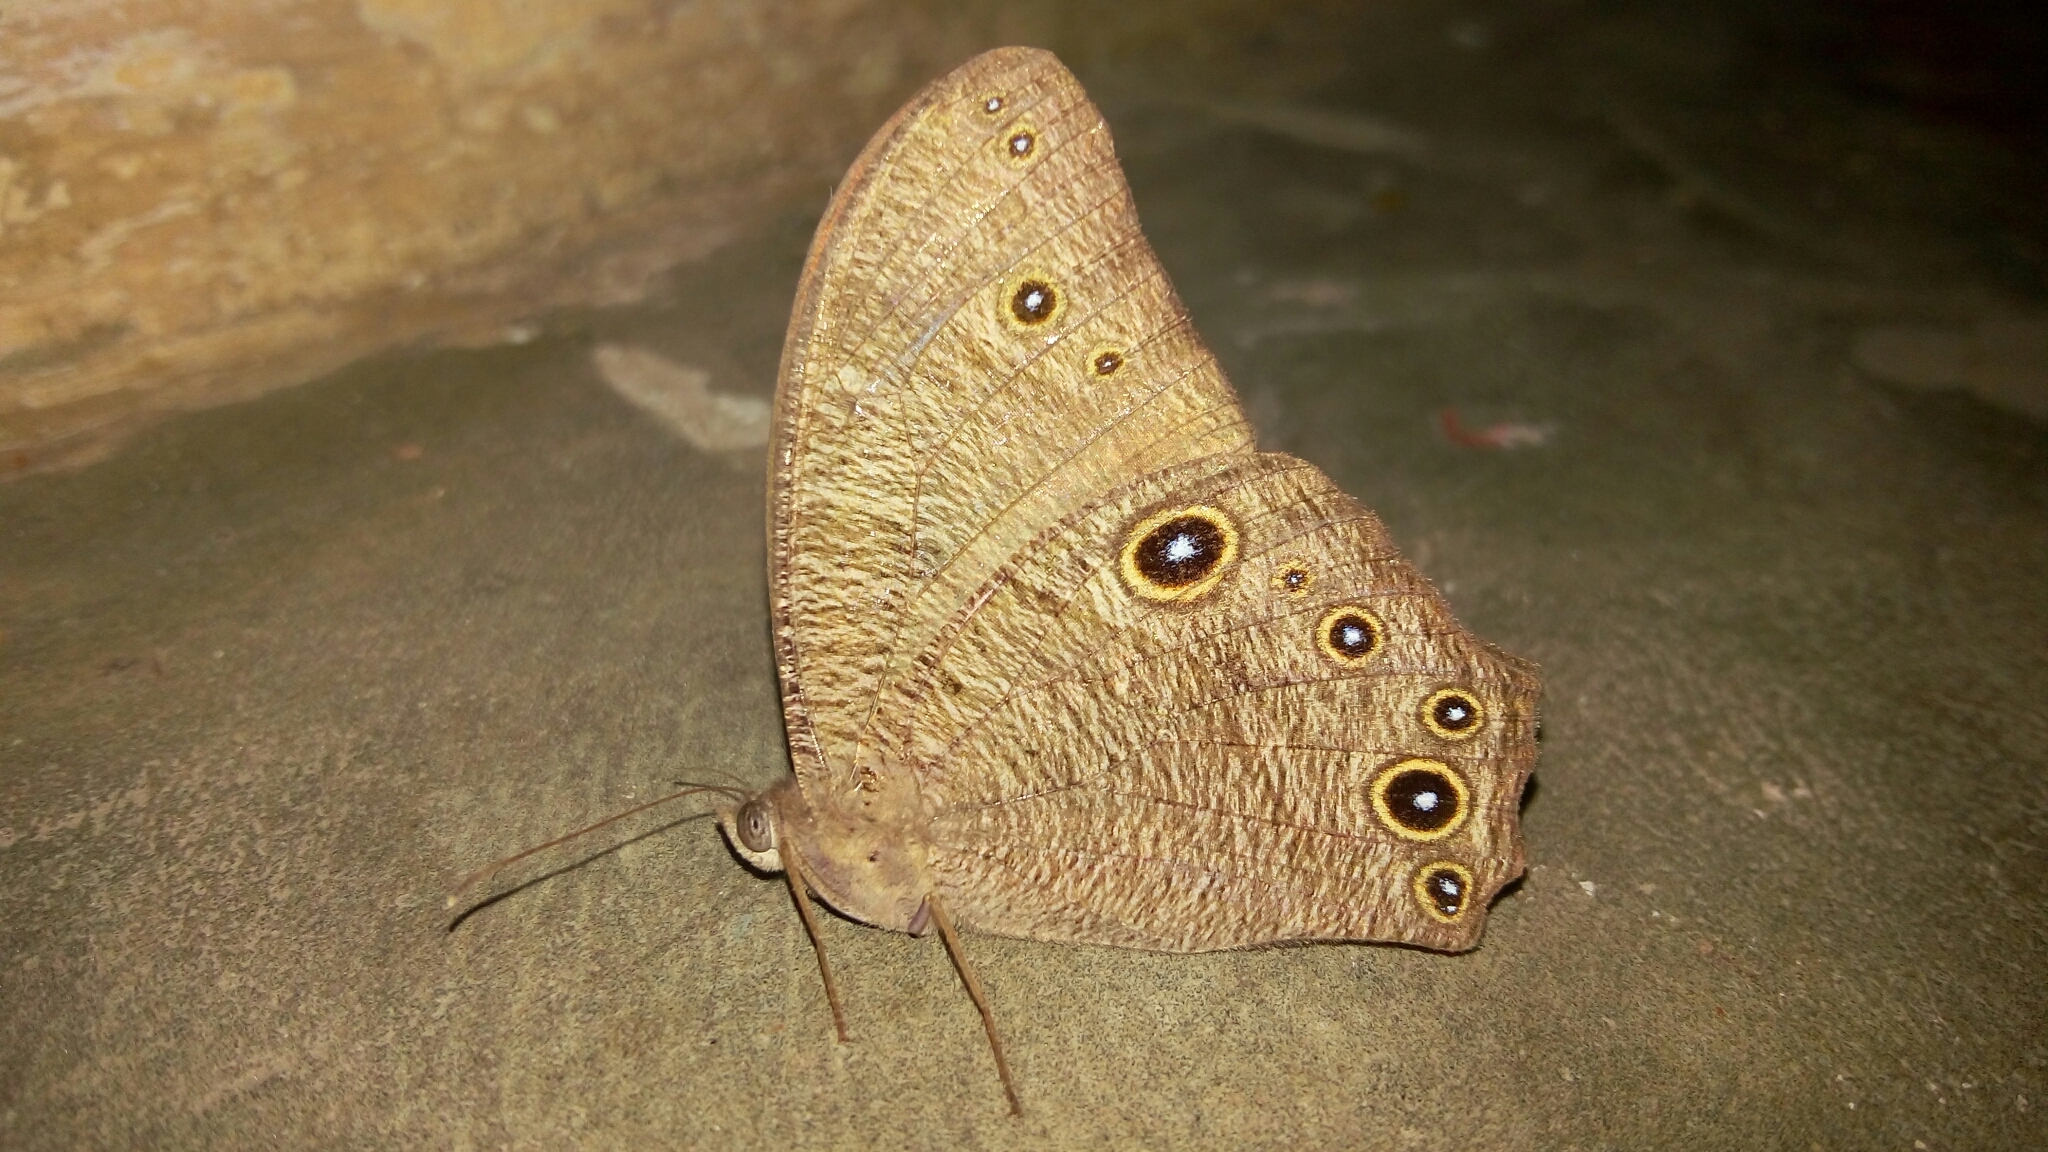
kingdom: Animalia
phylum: Arthropoda
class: Insecta
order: Lepidoptera
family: Nymphalidae
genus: Melanitis
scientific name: Melanitis leda
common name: Twilight brown
